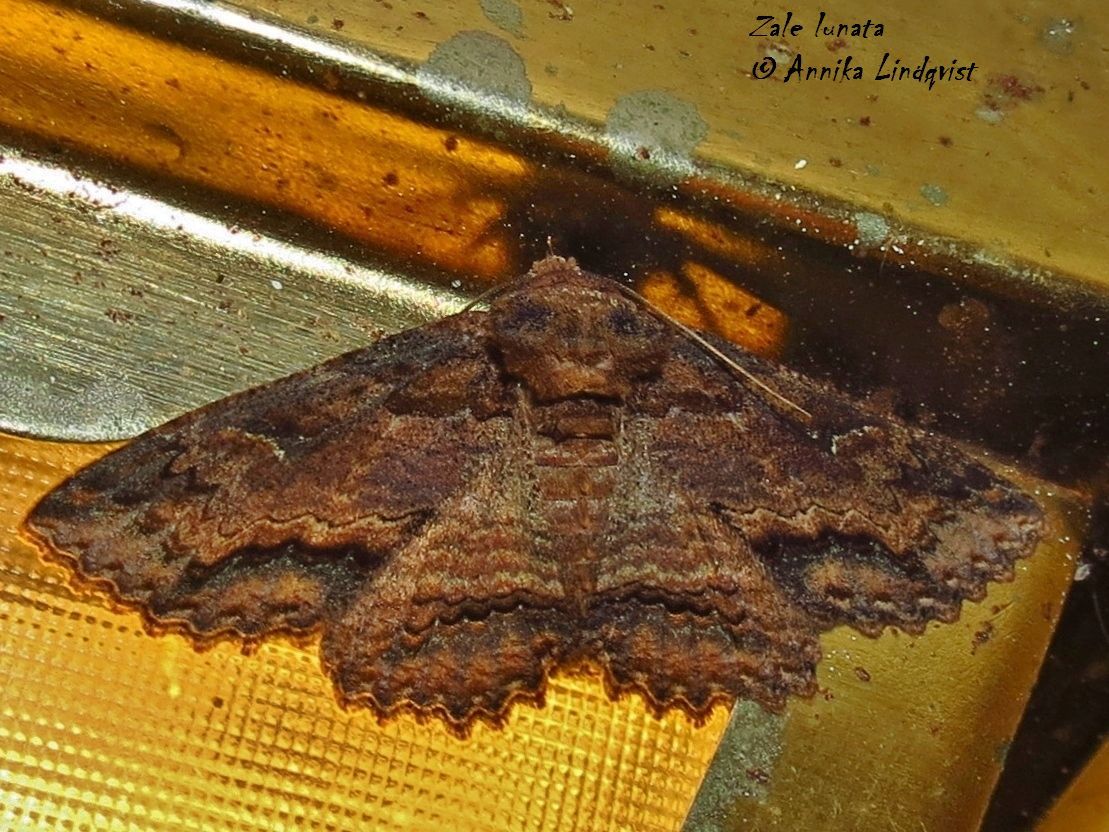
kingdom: Animalia
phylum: Arthropoda
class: Insecta
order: Lepidoptera
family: Erebidae
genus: Zale
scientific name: Zale lunata
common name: Lunate zale moth
